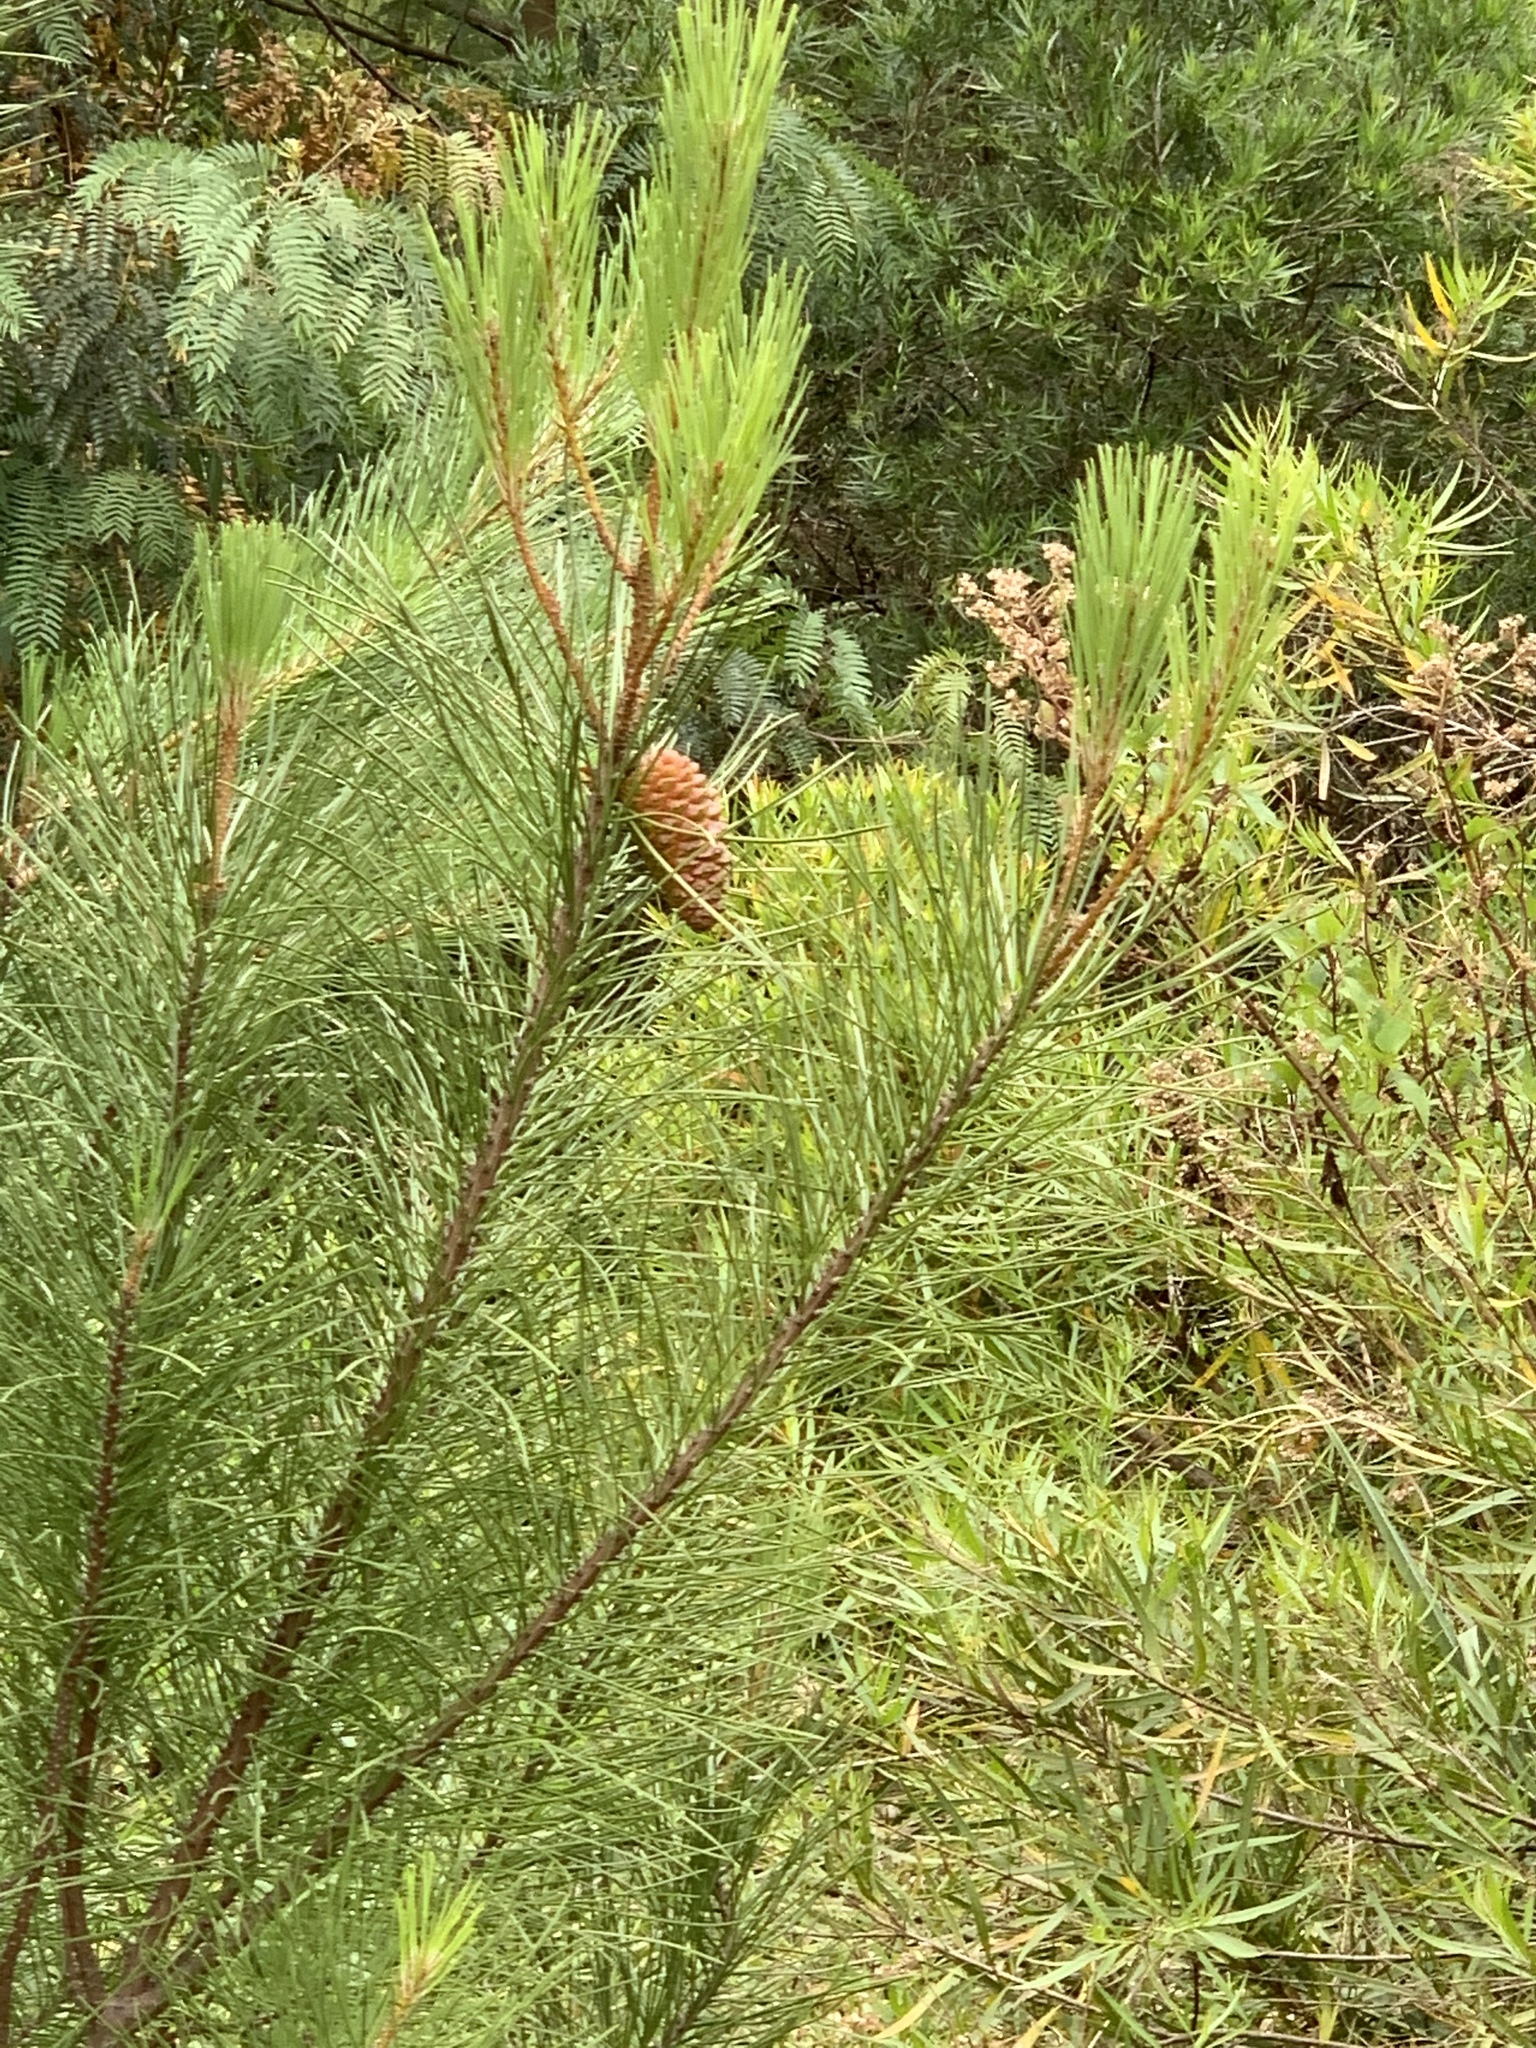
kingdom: Plantae
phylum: Tracheophyta
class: Pinopsida
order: Pinales
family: Pinaceae
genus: Pinus
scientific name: Pinus pinaster
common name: Maritime pine
